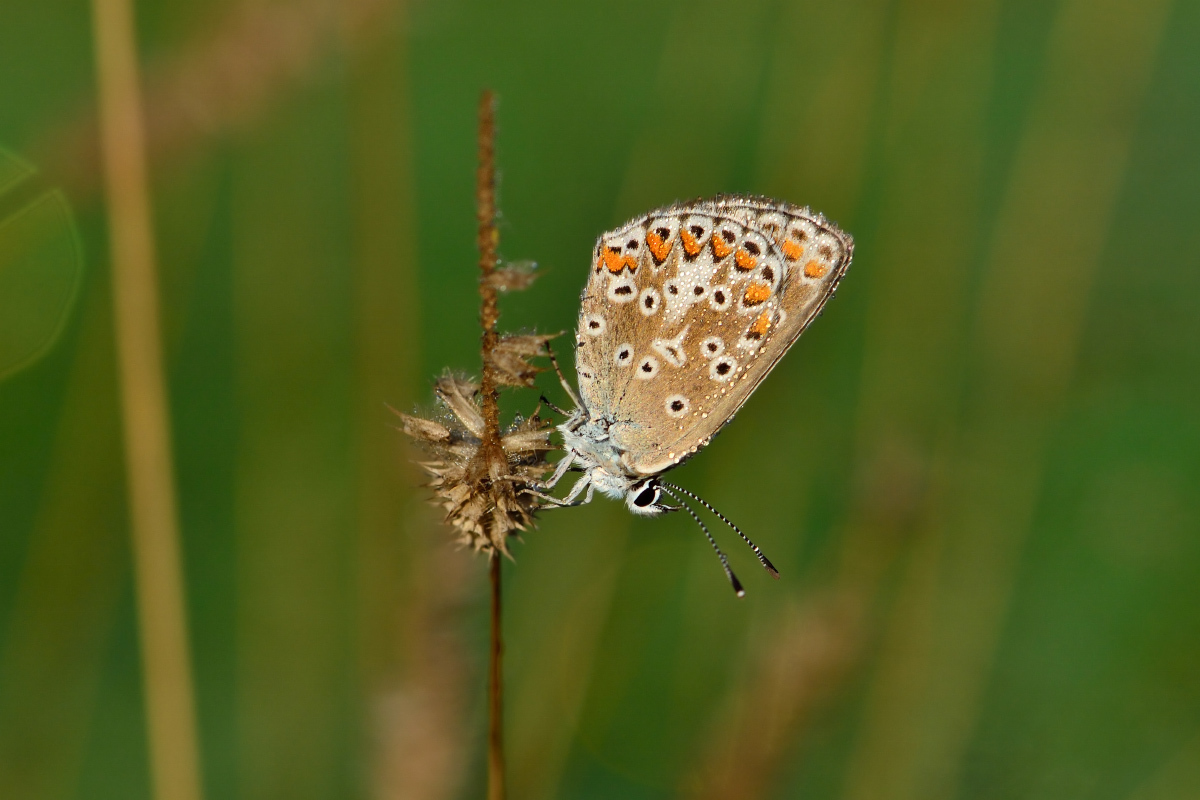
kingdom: Animalia
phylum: Arthropoda
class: Insecta
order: Lepidoptera
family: Lycaenidae
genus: Aricia
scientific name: Aricia artaxerxes
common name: Northern brown argus
